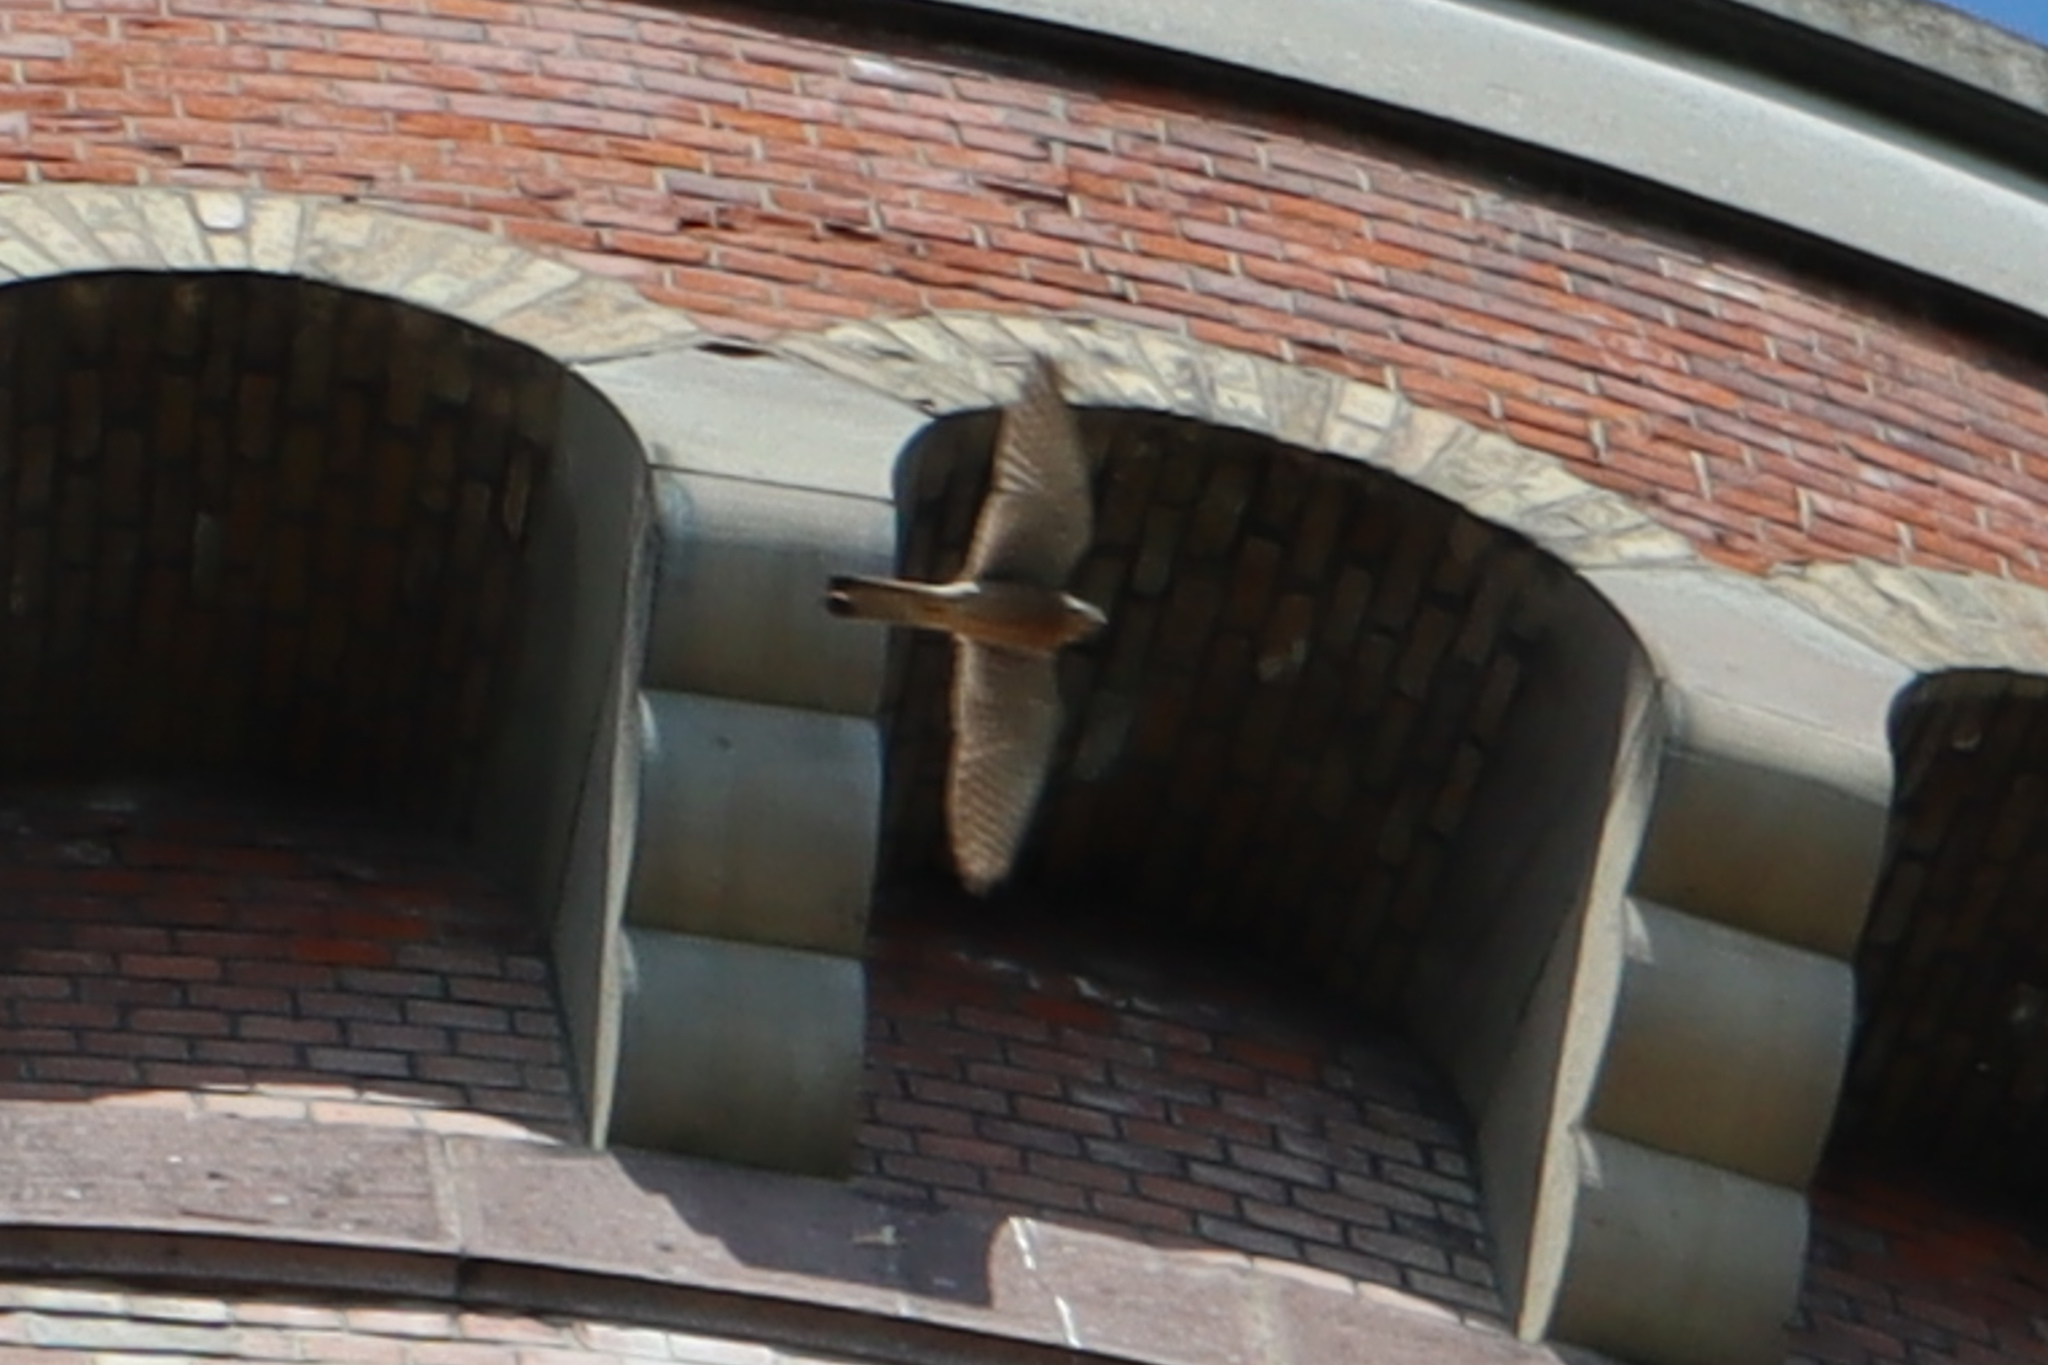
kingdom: Animalia
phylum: Chordata
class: Aves
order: Falconiformes
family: Falconidae
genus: Falco
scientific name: Falco tinnunculus
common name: Common kestrel
